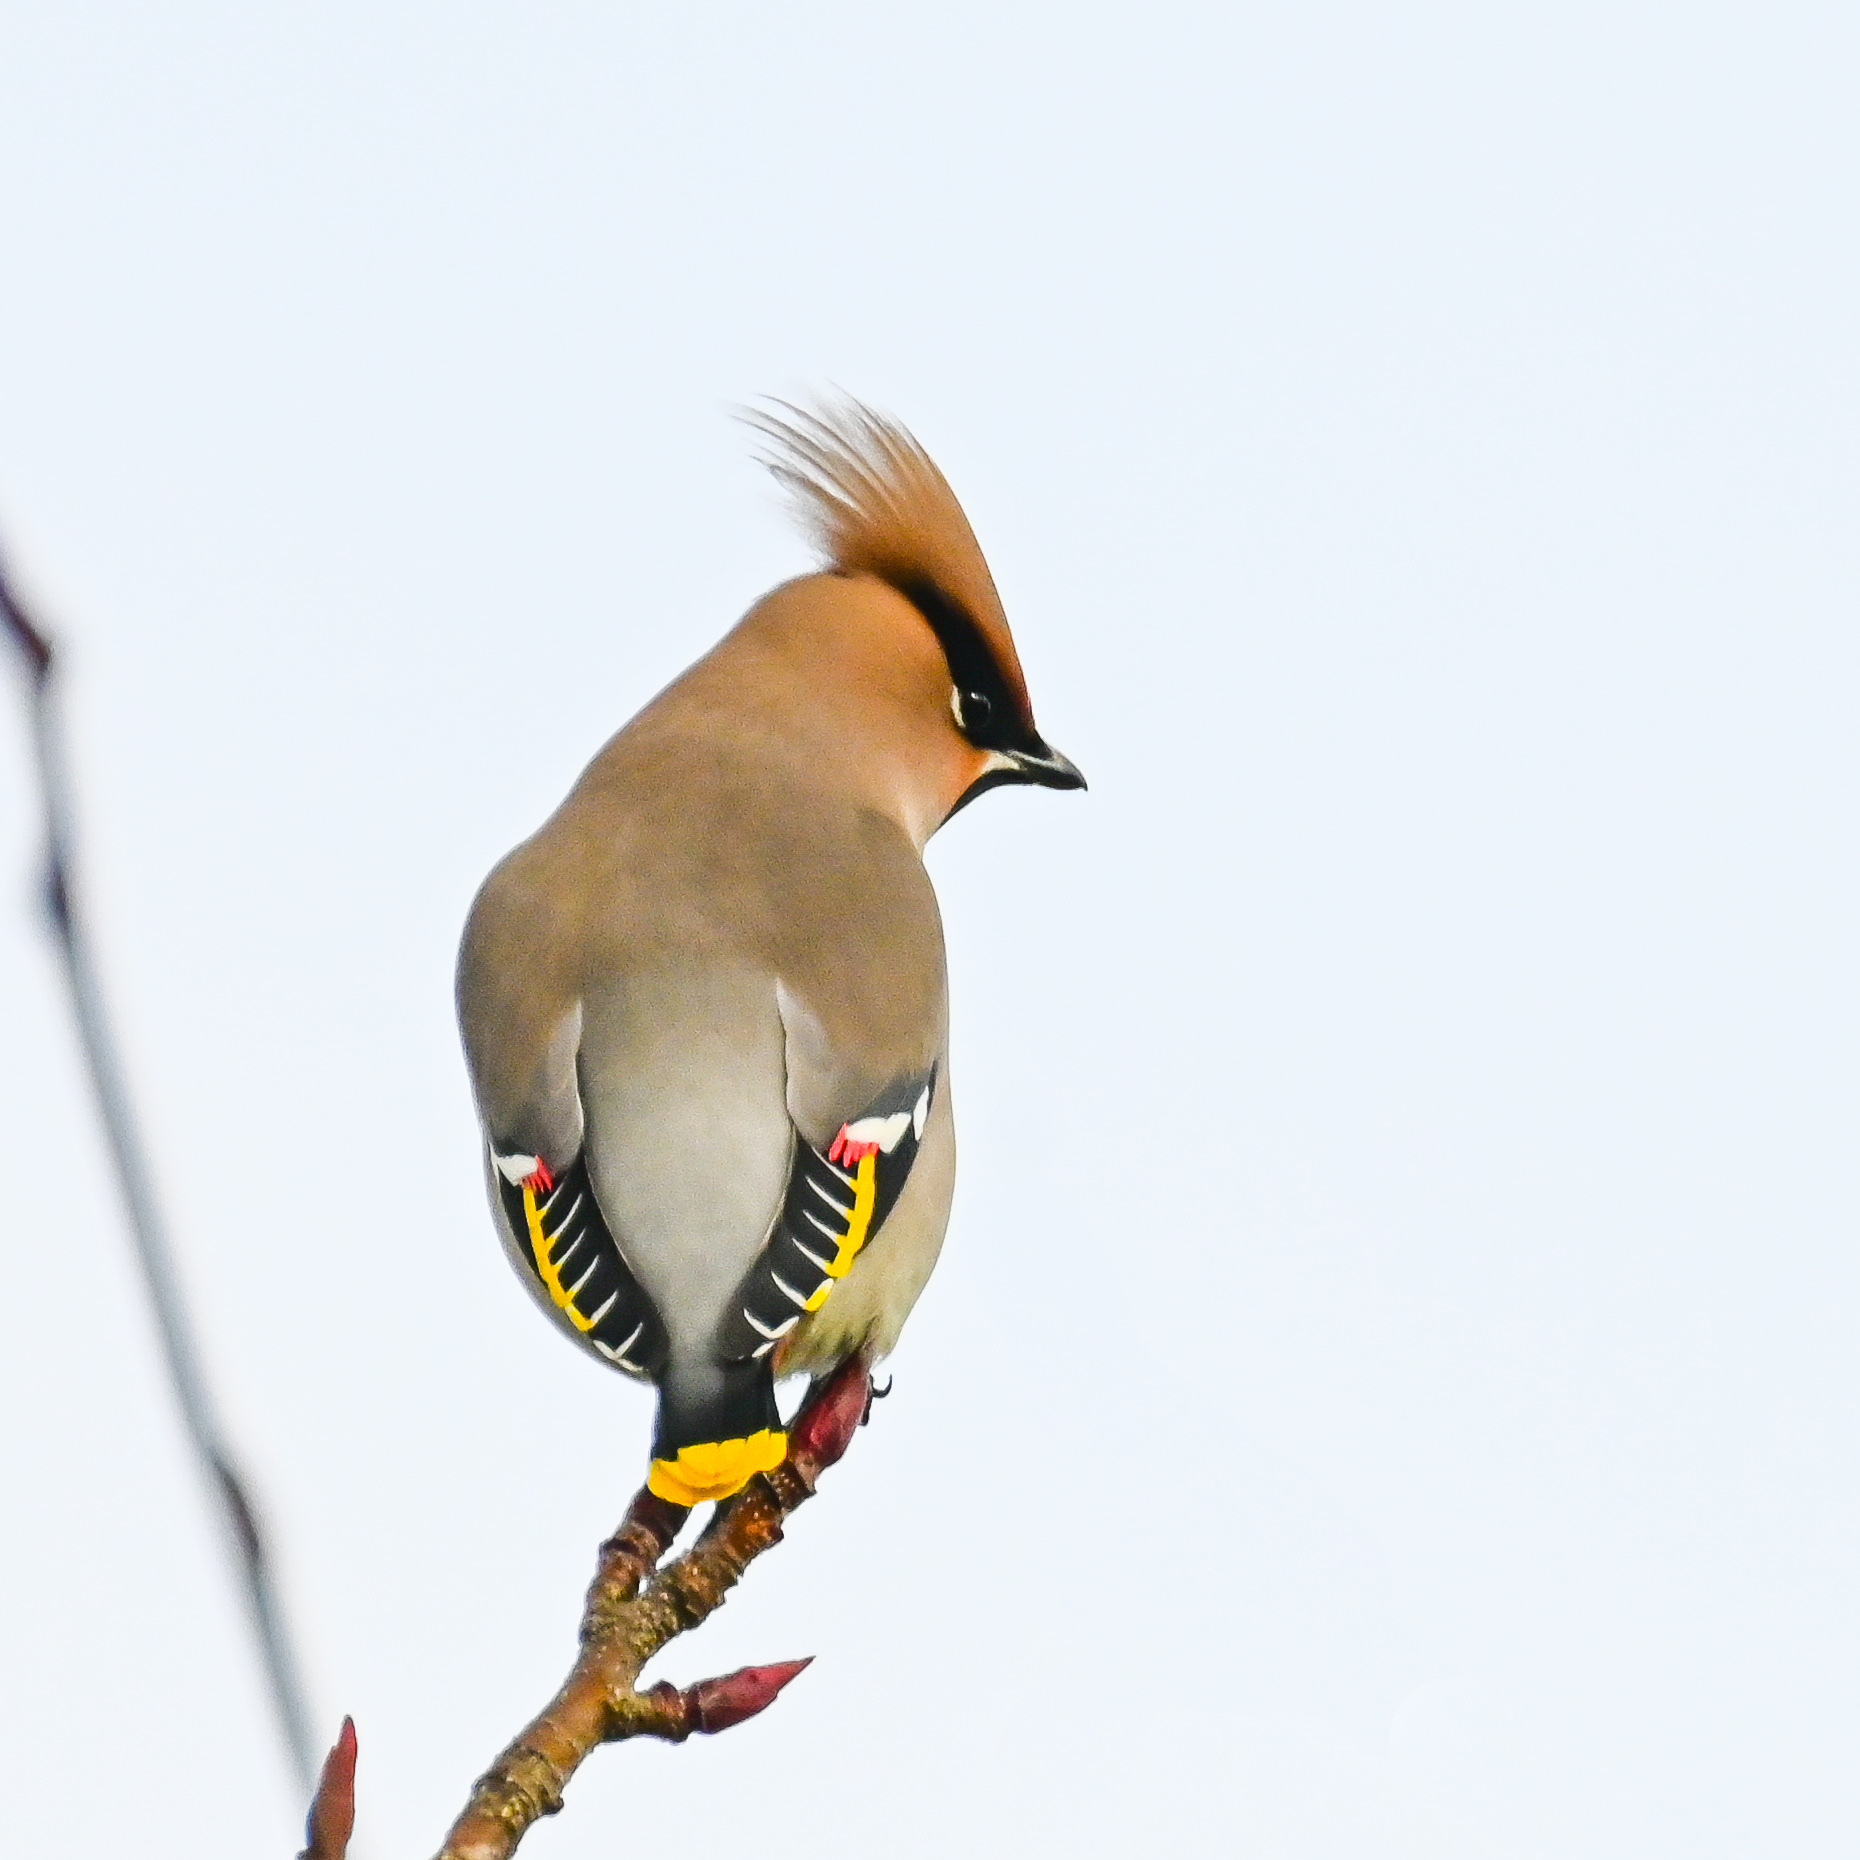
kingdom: Animalia
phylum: Chordata
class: Aves
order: Passeriformes
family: Bombycillidae
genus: Bombycilla
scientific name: Bombycilla garrulus
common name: Bohemian waxwing
